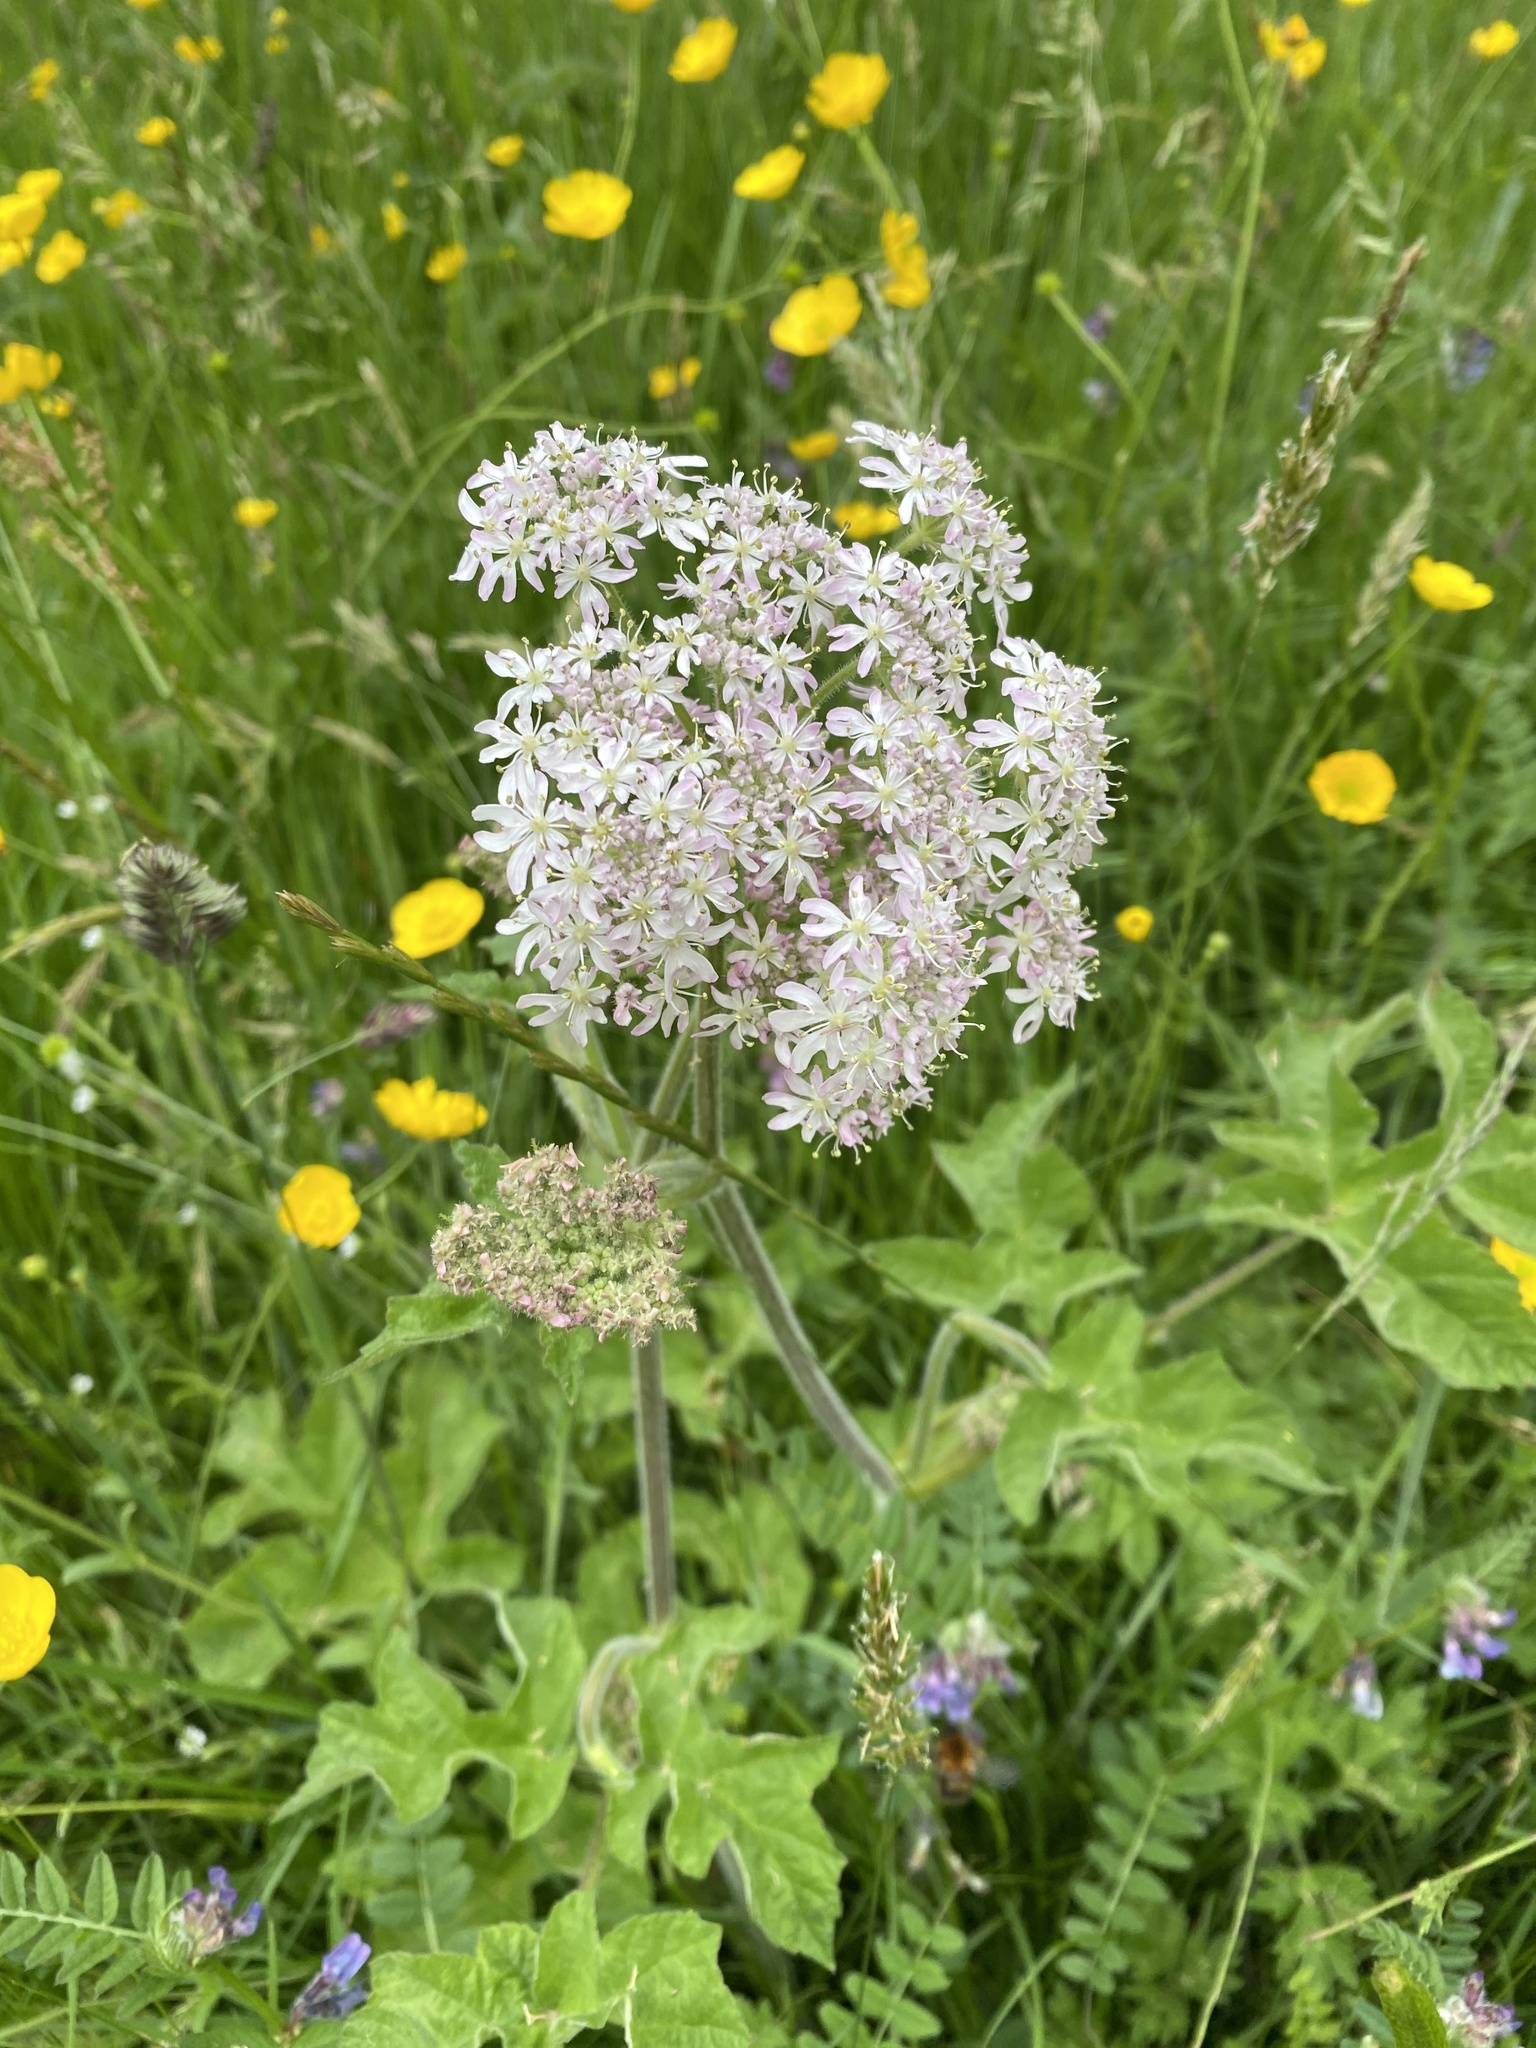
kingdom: Plantae
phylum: Tracheophyta
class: Magnoliopsida
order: Apiales
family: Apiaceae
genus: Heracleum
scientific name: Heracleum sphondylium
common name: Hogweed
